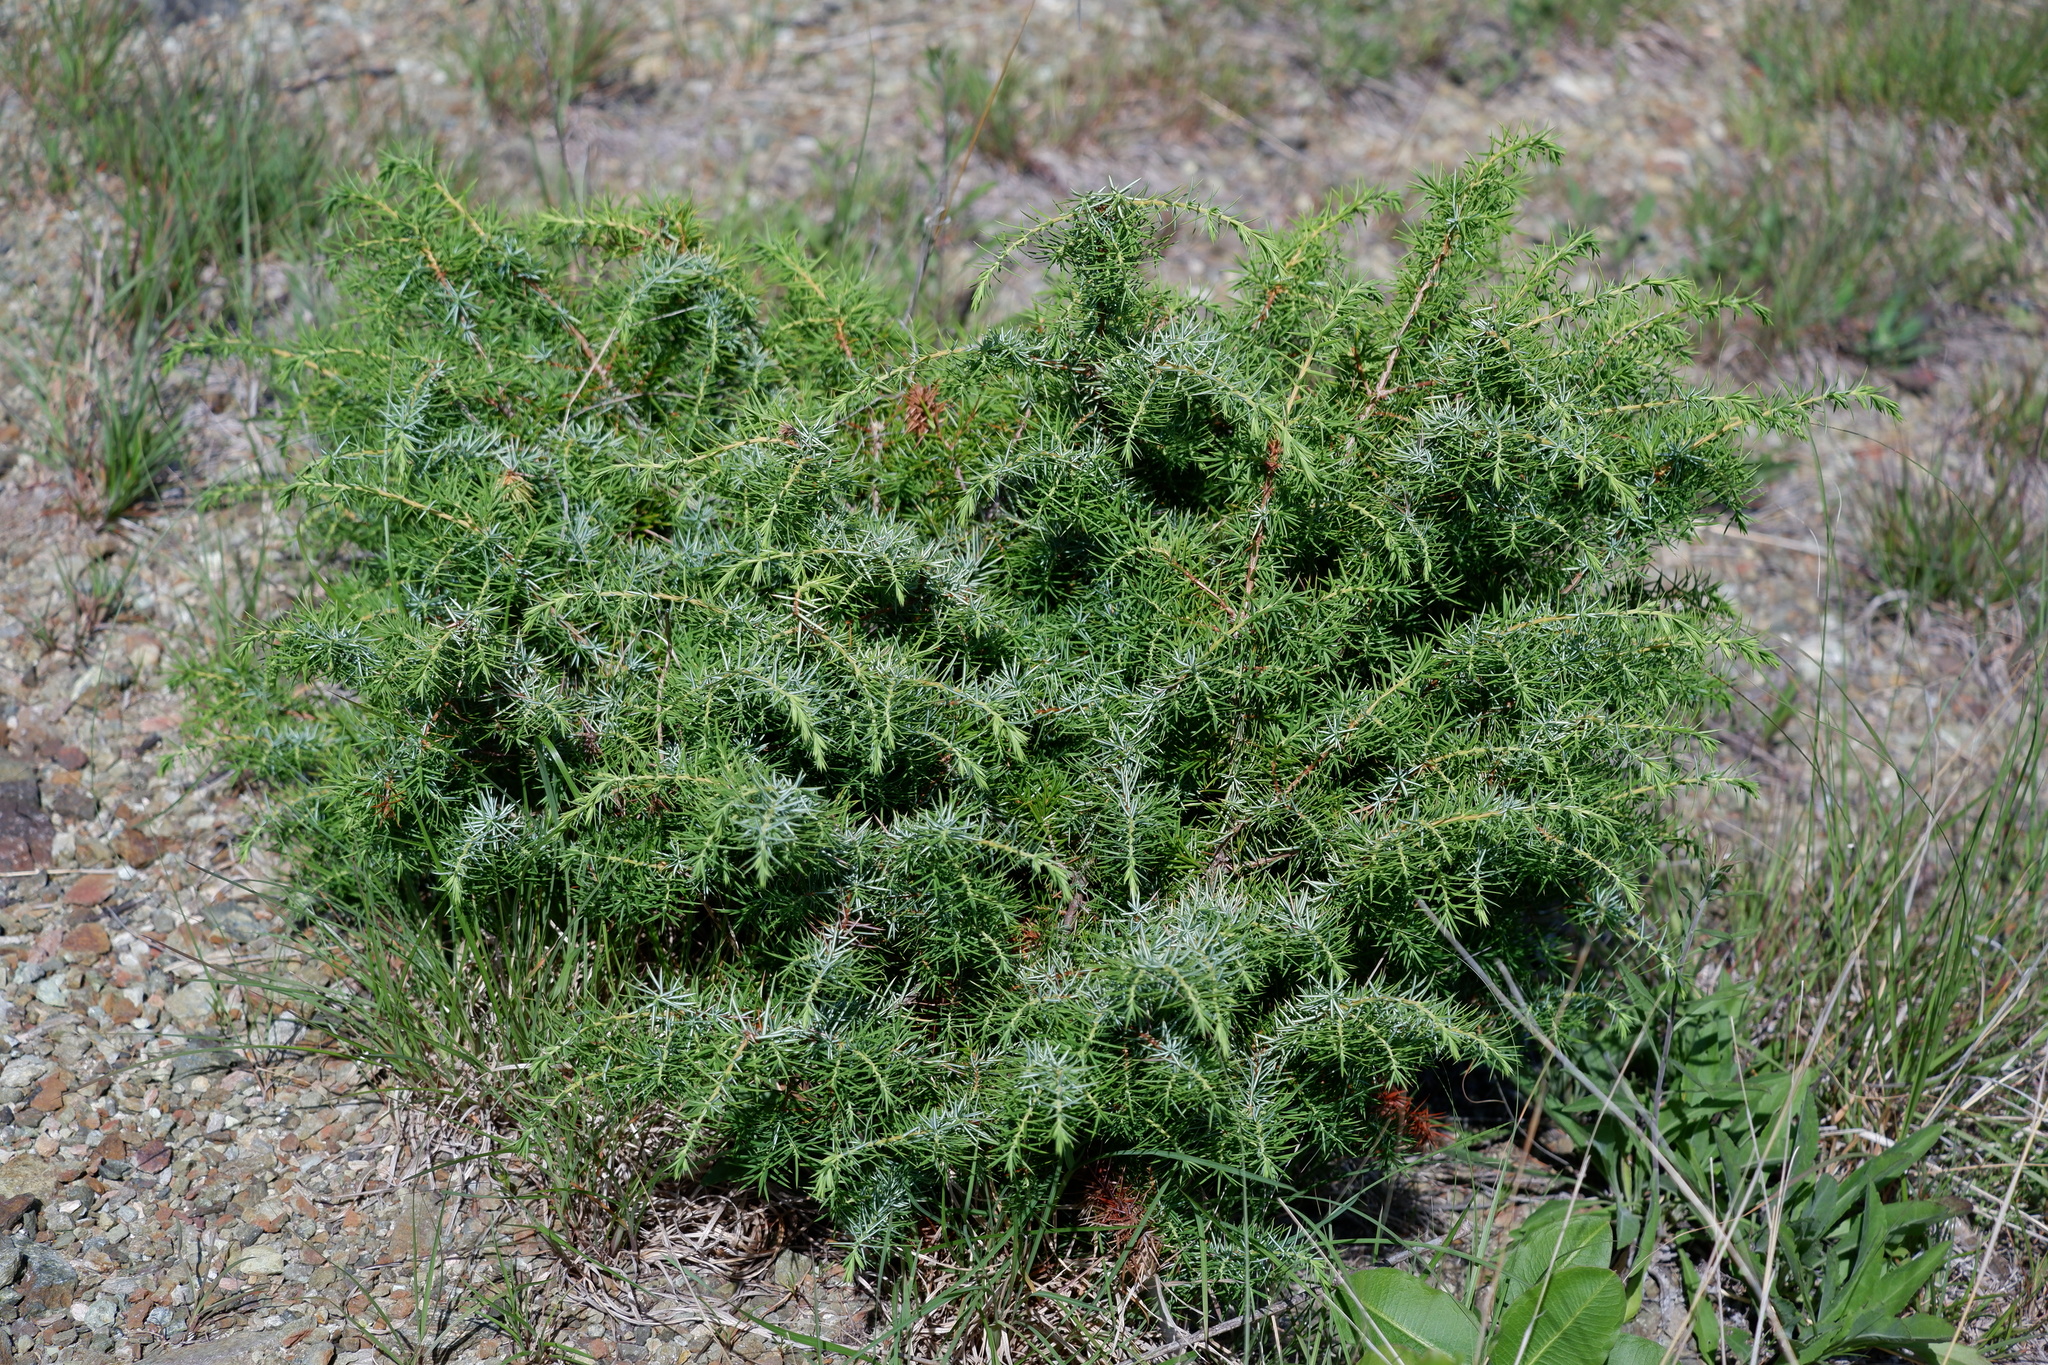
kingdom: Plantae
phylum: Tracheophyta
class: Pinopsida
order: Pinales
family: Cupressaceae
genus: Juniperus
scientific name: Juniperus communis
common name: Common juniper
